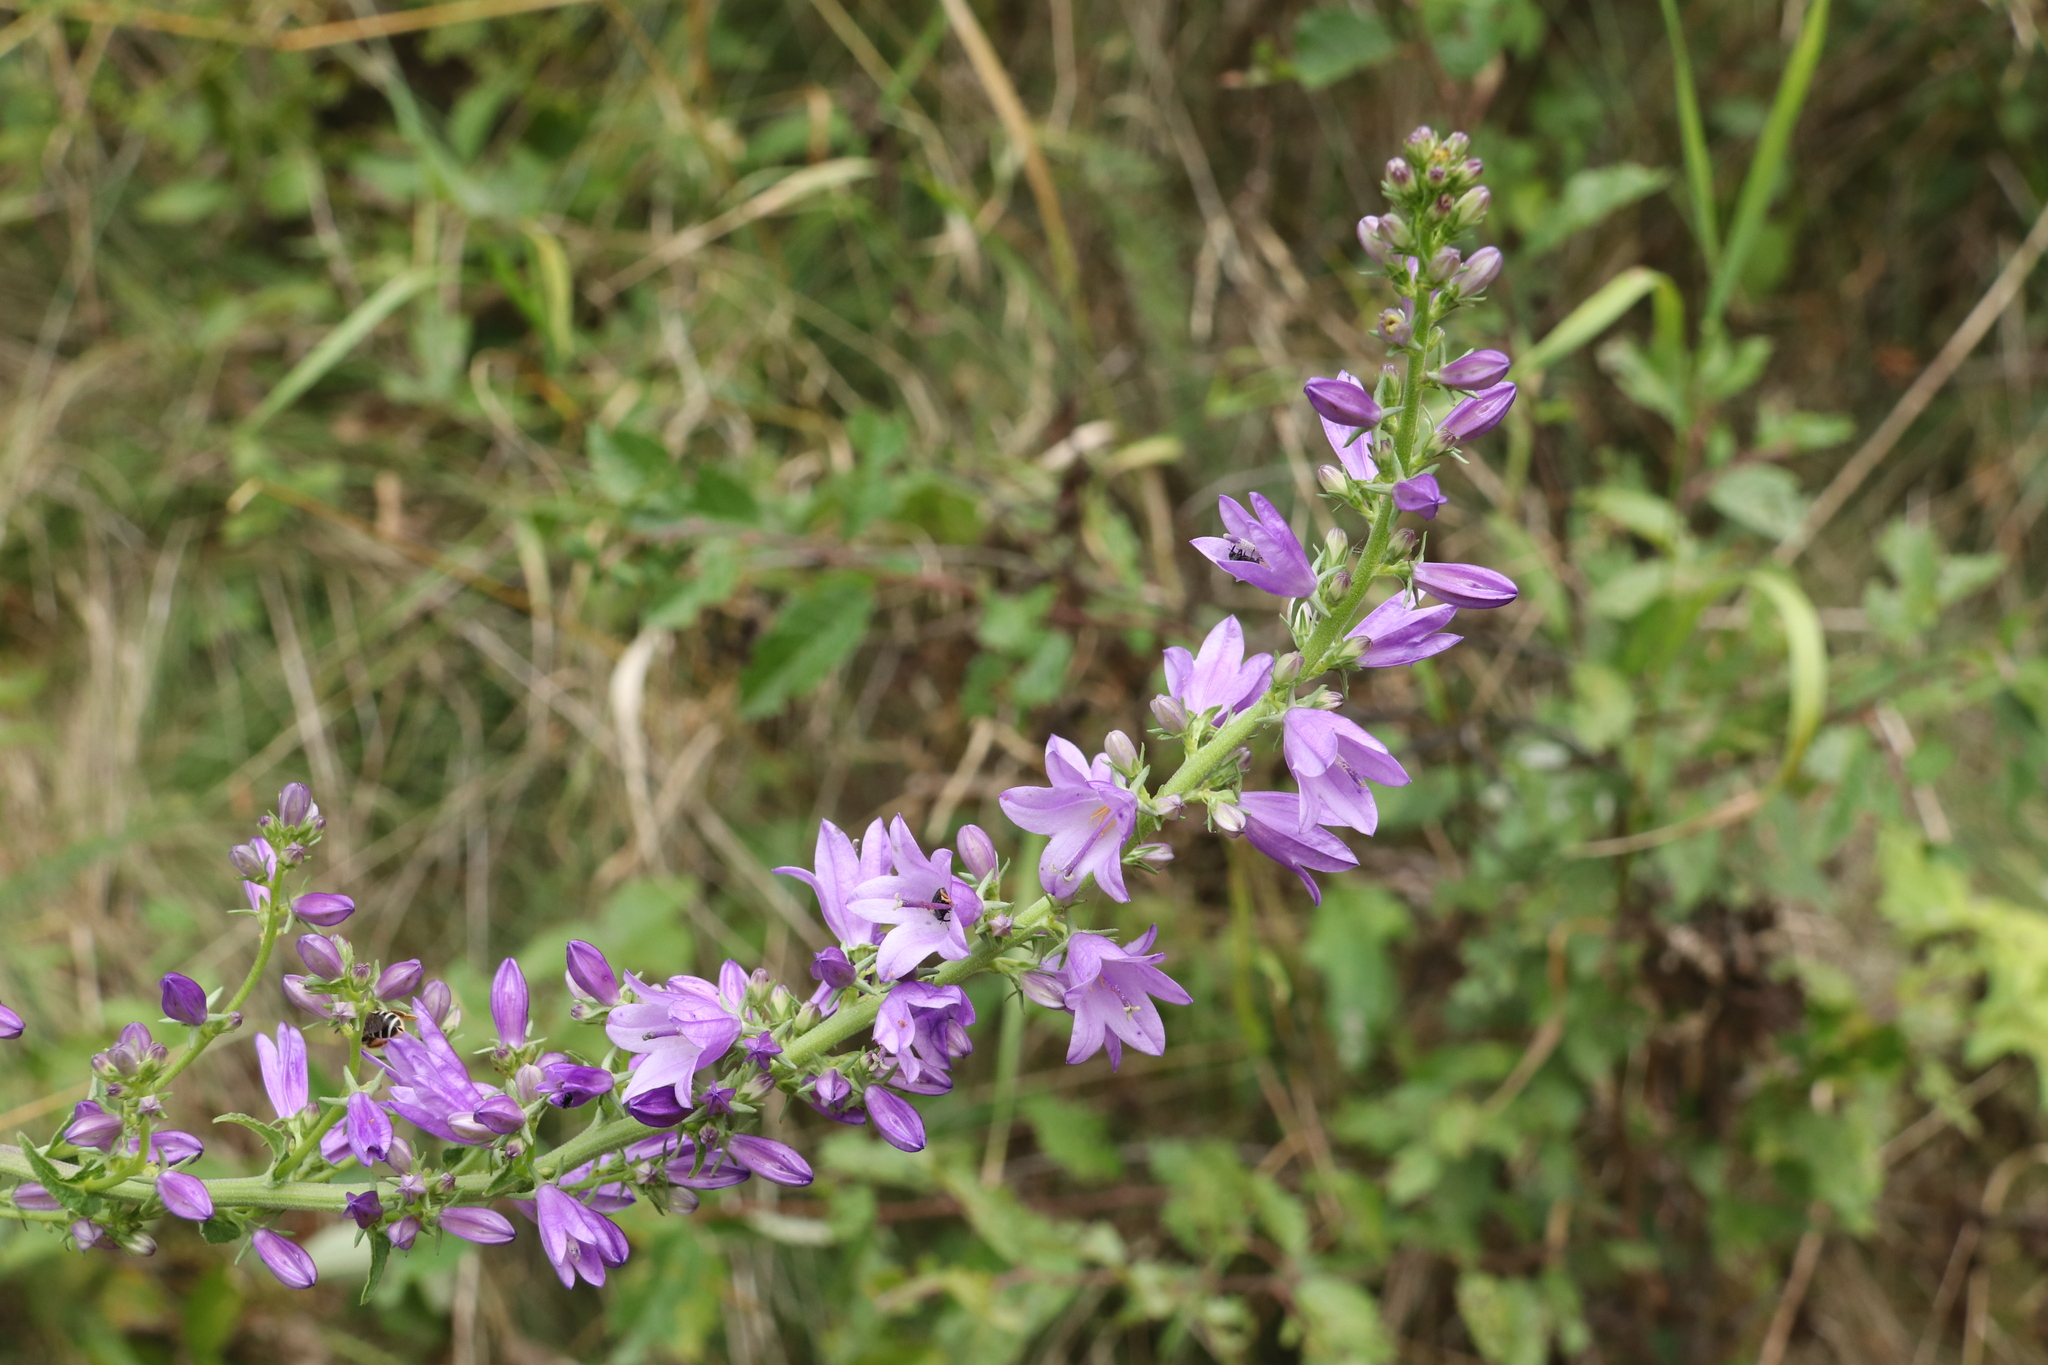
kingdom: Plantae
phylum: Tracheophyta
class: Magnoliopsida
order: Asterales
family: Campanulaceae
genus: Campanula
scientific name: Campanula bononiensis
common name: Pale bellflower
